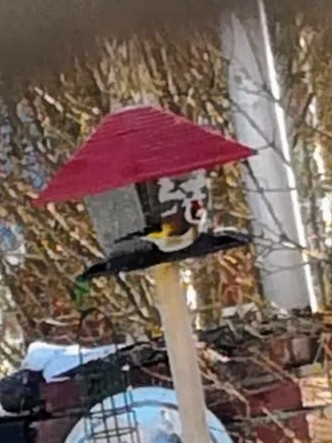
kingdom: Animalia
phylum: Chordata
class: Aves
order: Passeriformes
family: Fringillidae
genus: Carduelis
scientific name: Carduelis carduelis
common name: European goldfinch
